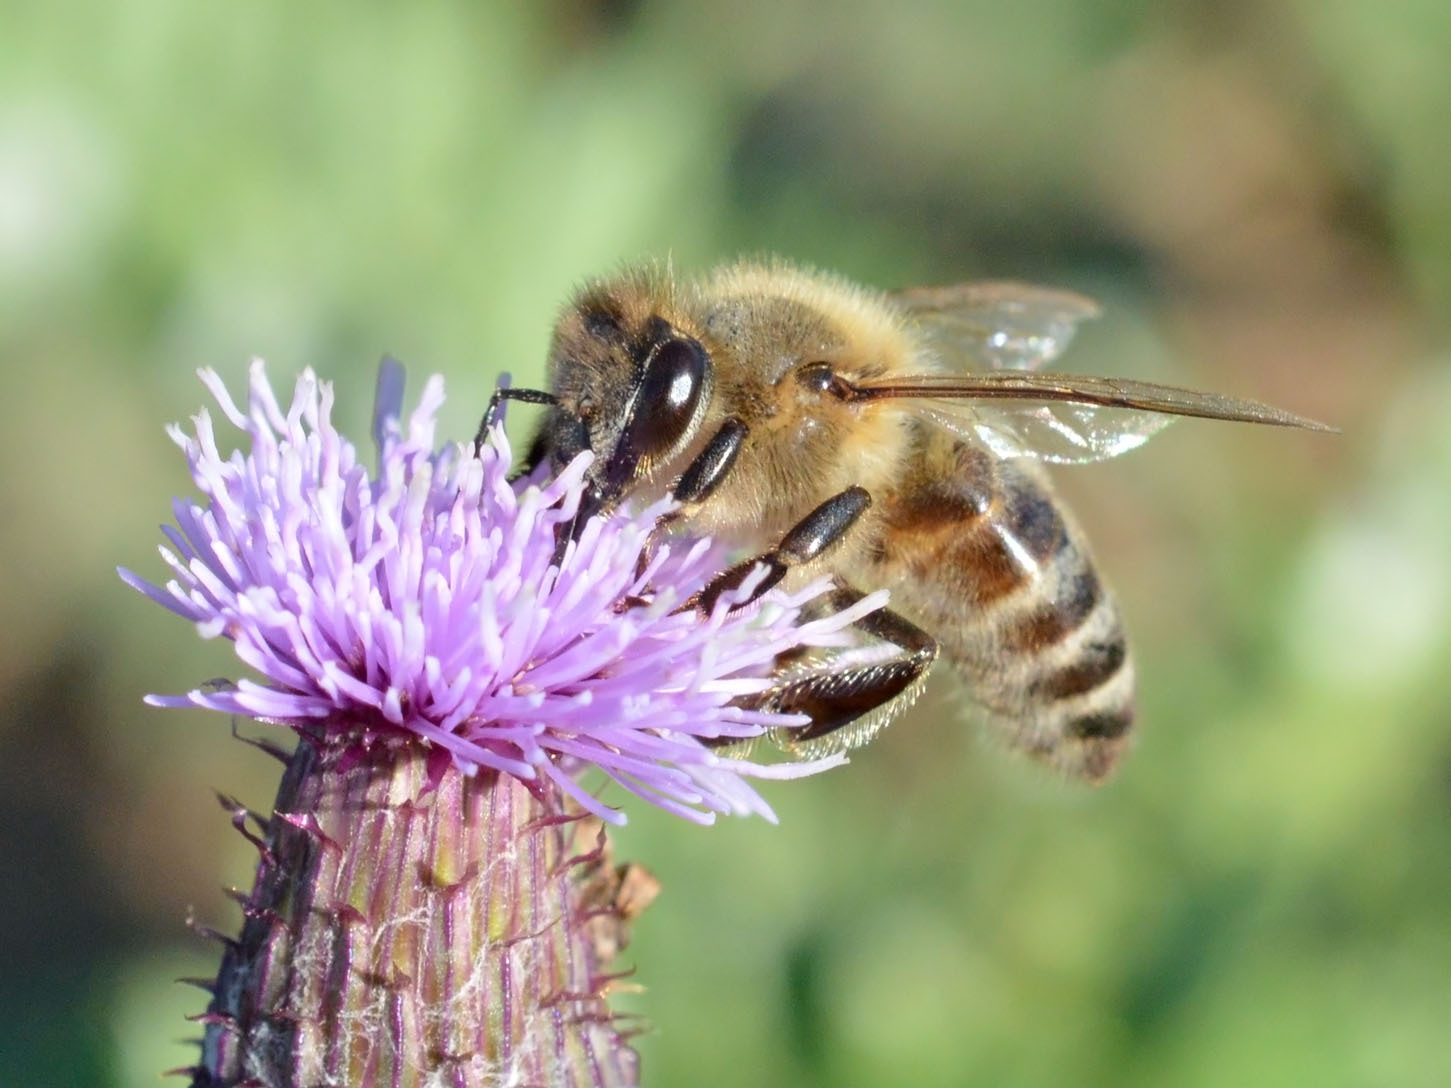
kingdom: Animalia
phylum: Arthropoda
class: Insecta
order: Hymenoptera
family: Apidae
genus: Apis
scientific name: Apis mellifera
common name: Honey bee
